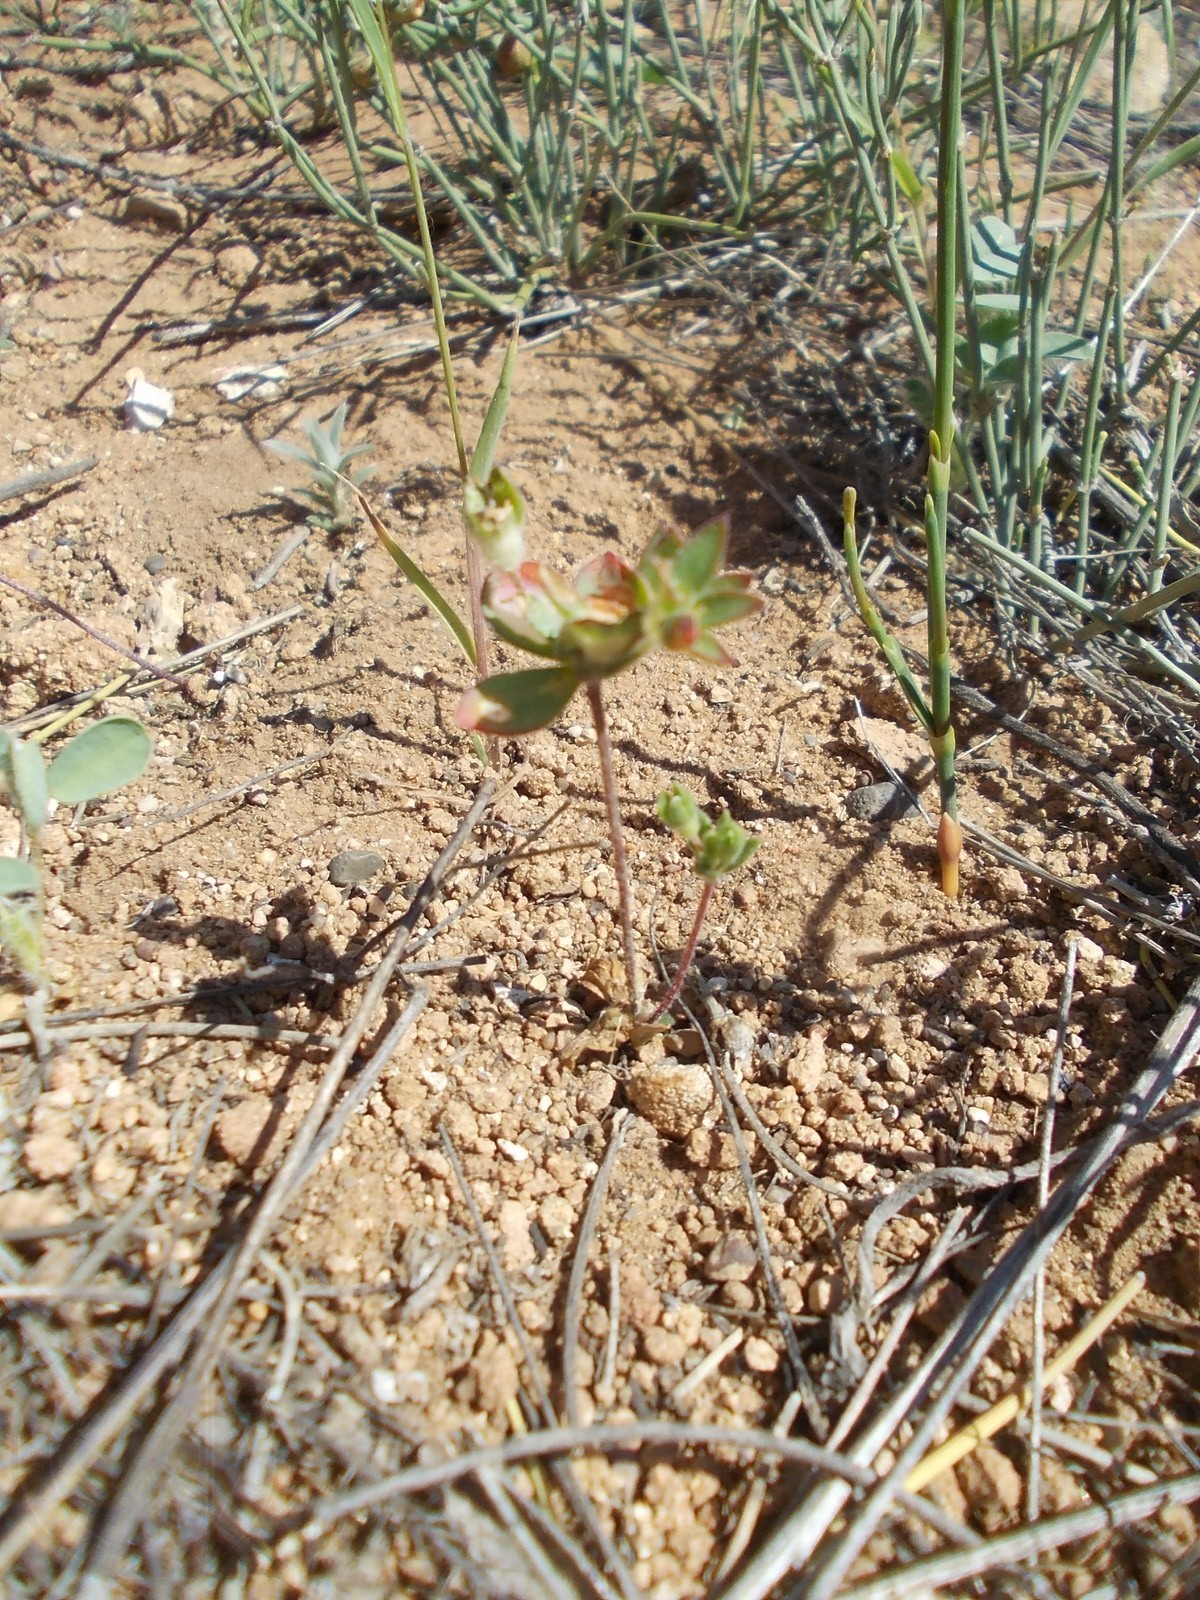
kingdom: Plantae
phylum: Tracheophyta
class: Magnoliopsida
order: Ericales
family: Primulaceae
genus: Androsace
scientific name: Androsace maxima
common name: Annual androsace
